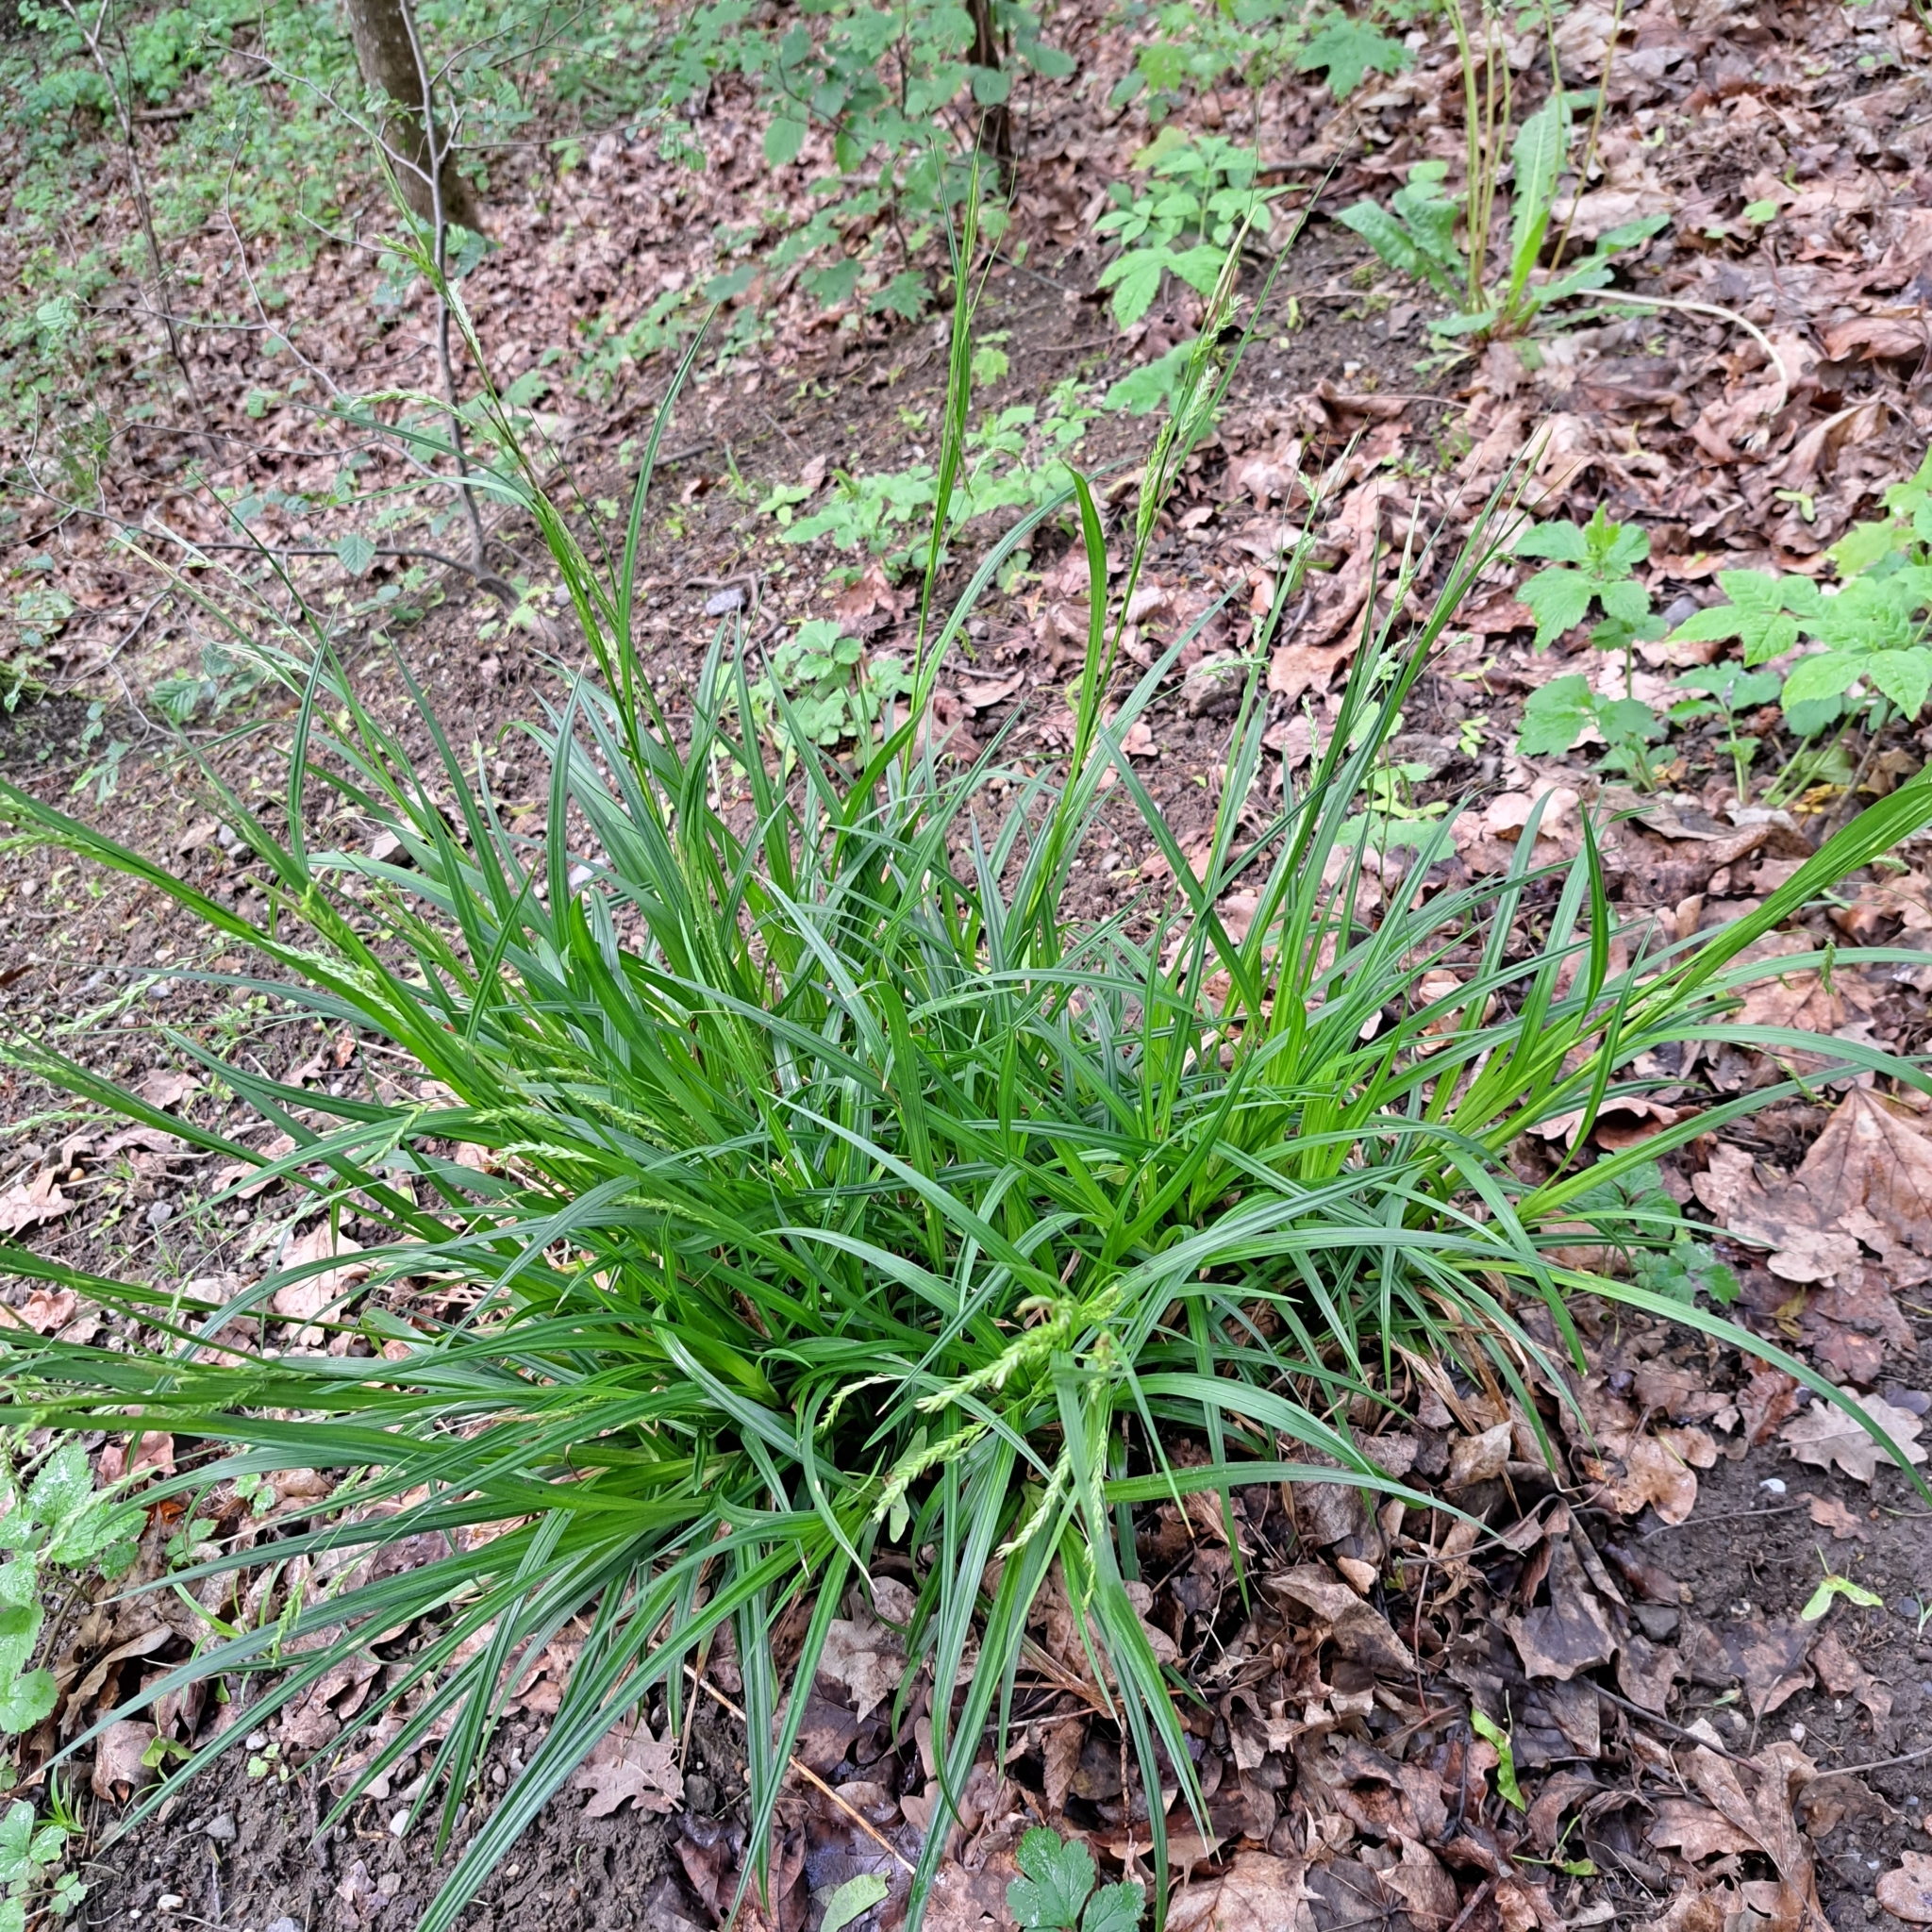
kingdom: Plantae
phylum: Tracheophyta
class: Liliopsida
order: Poales
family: Cyperaceae
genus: Carex
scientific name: Carex sylvatica
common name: Wood-sedge
